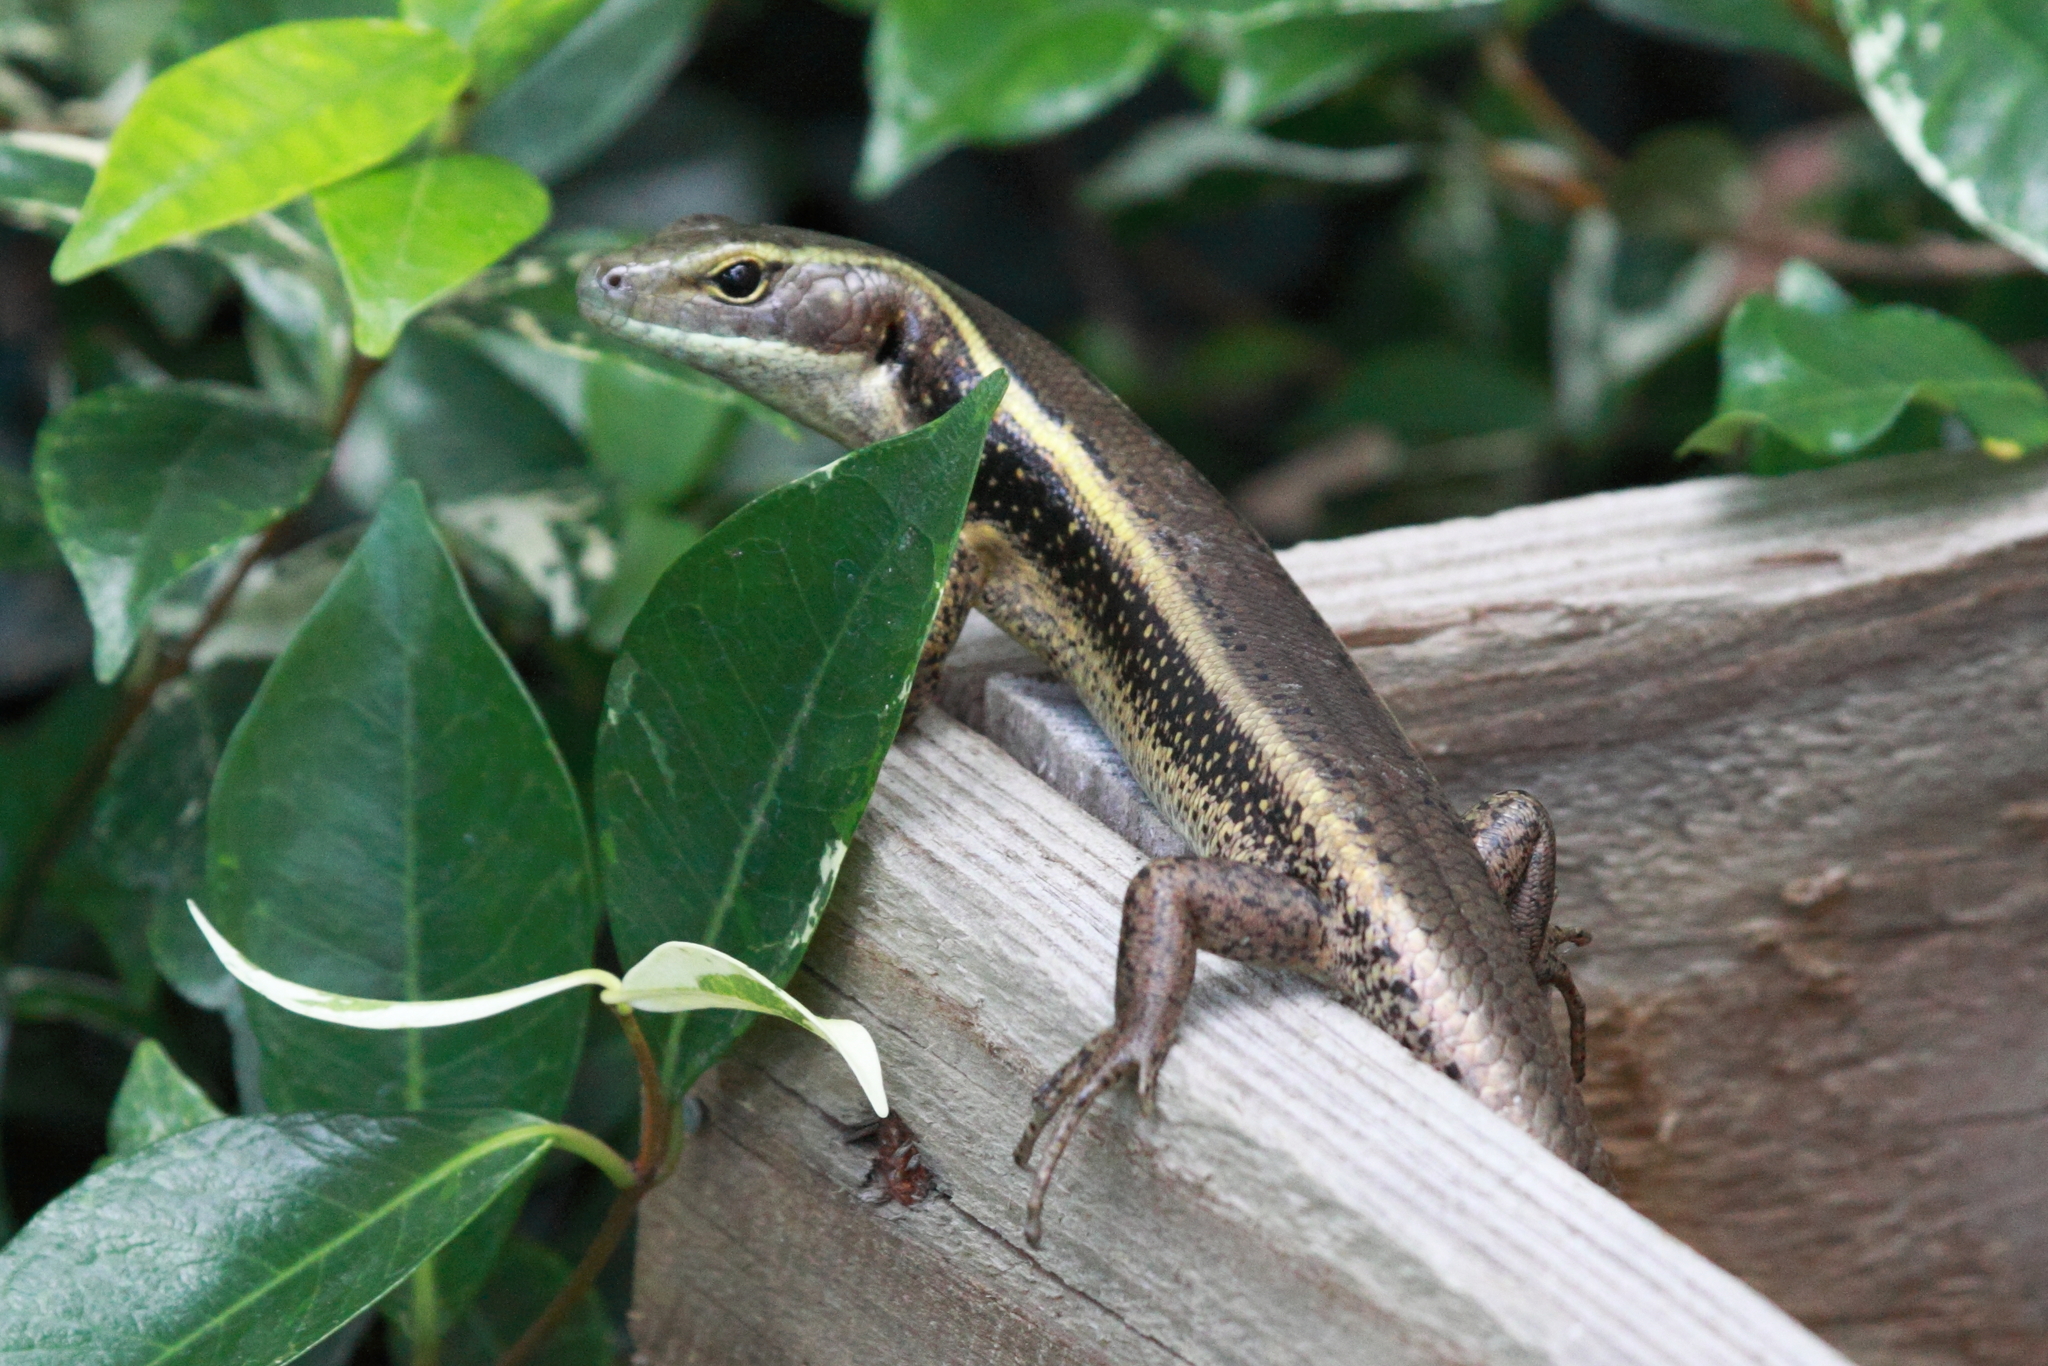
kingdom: Animalia
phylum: Chordata
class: Squamata
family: Scincidae
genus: Eulamprus
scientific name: Eulamprus quoyii
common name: Eastern water skink
